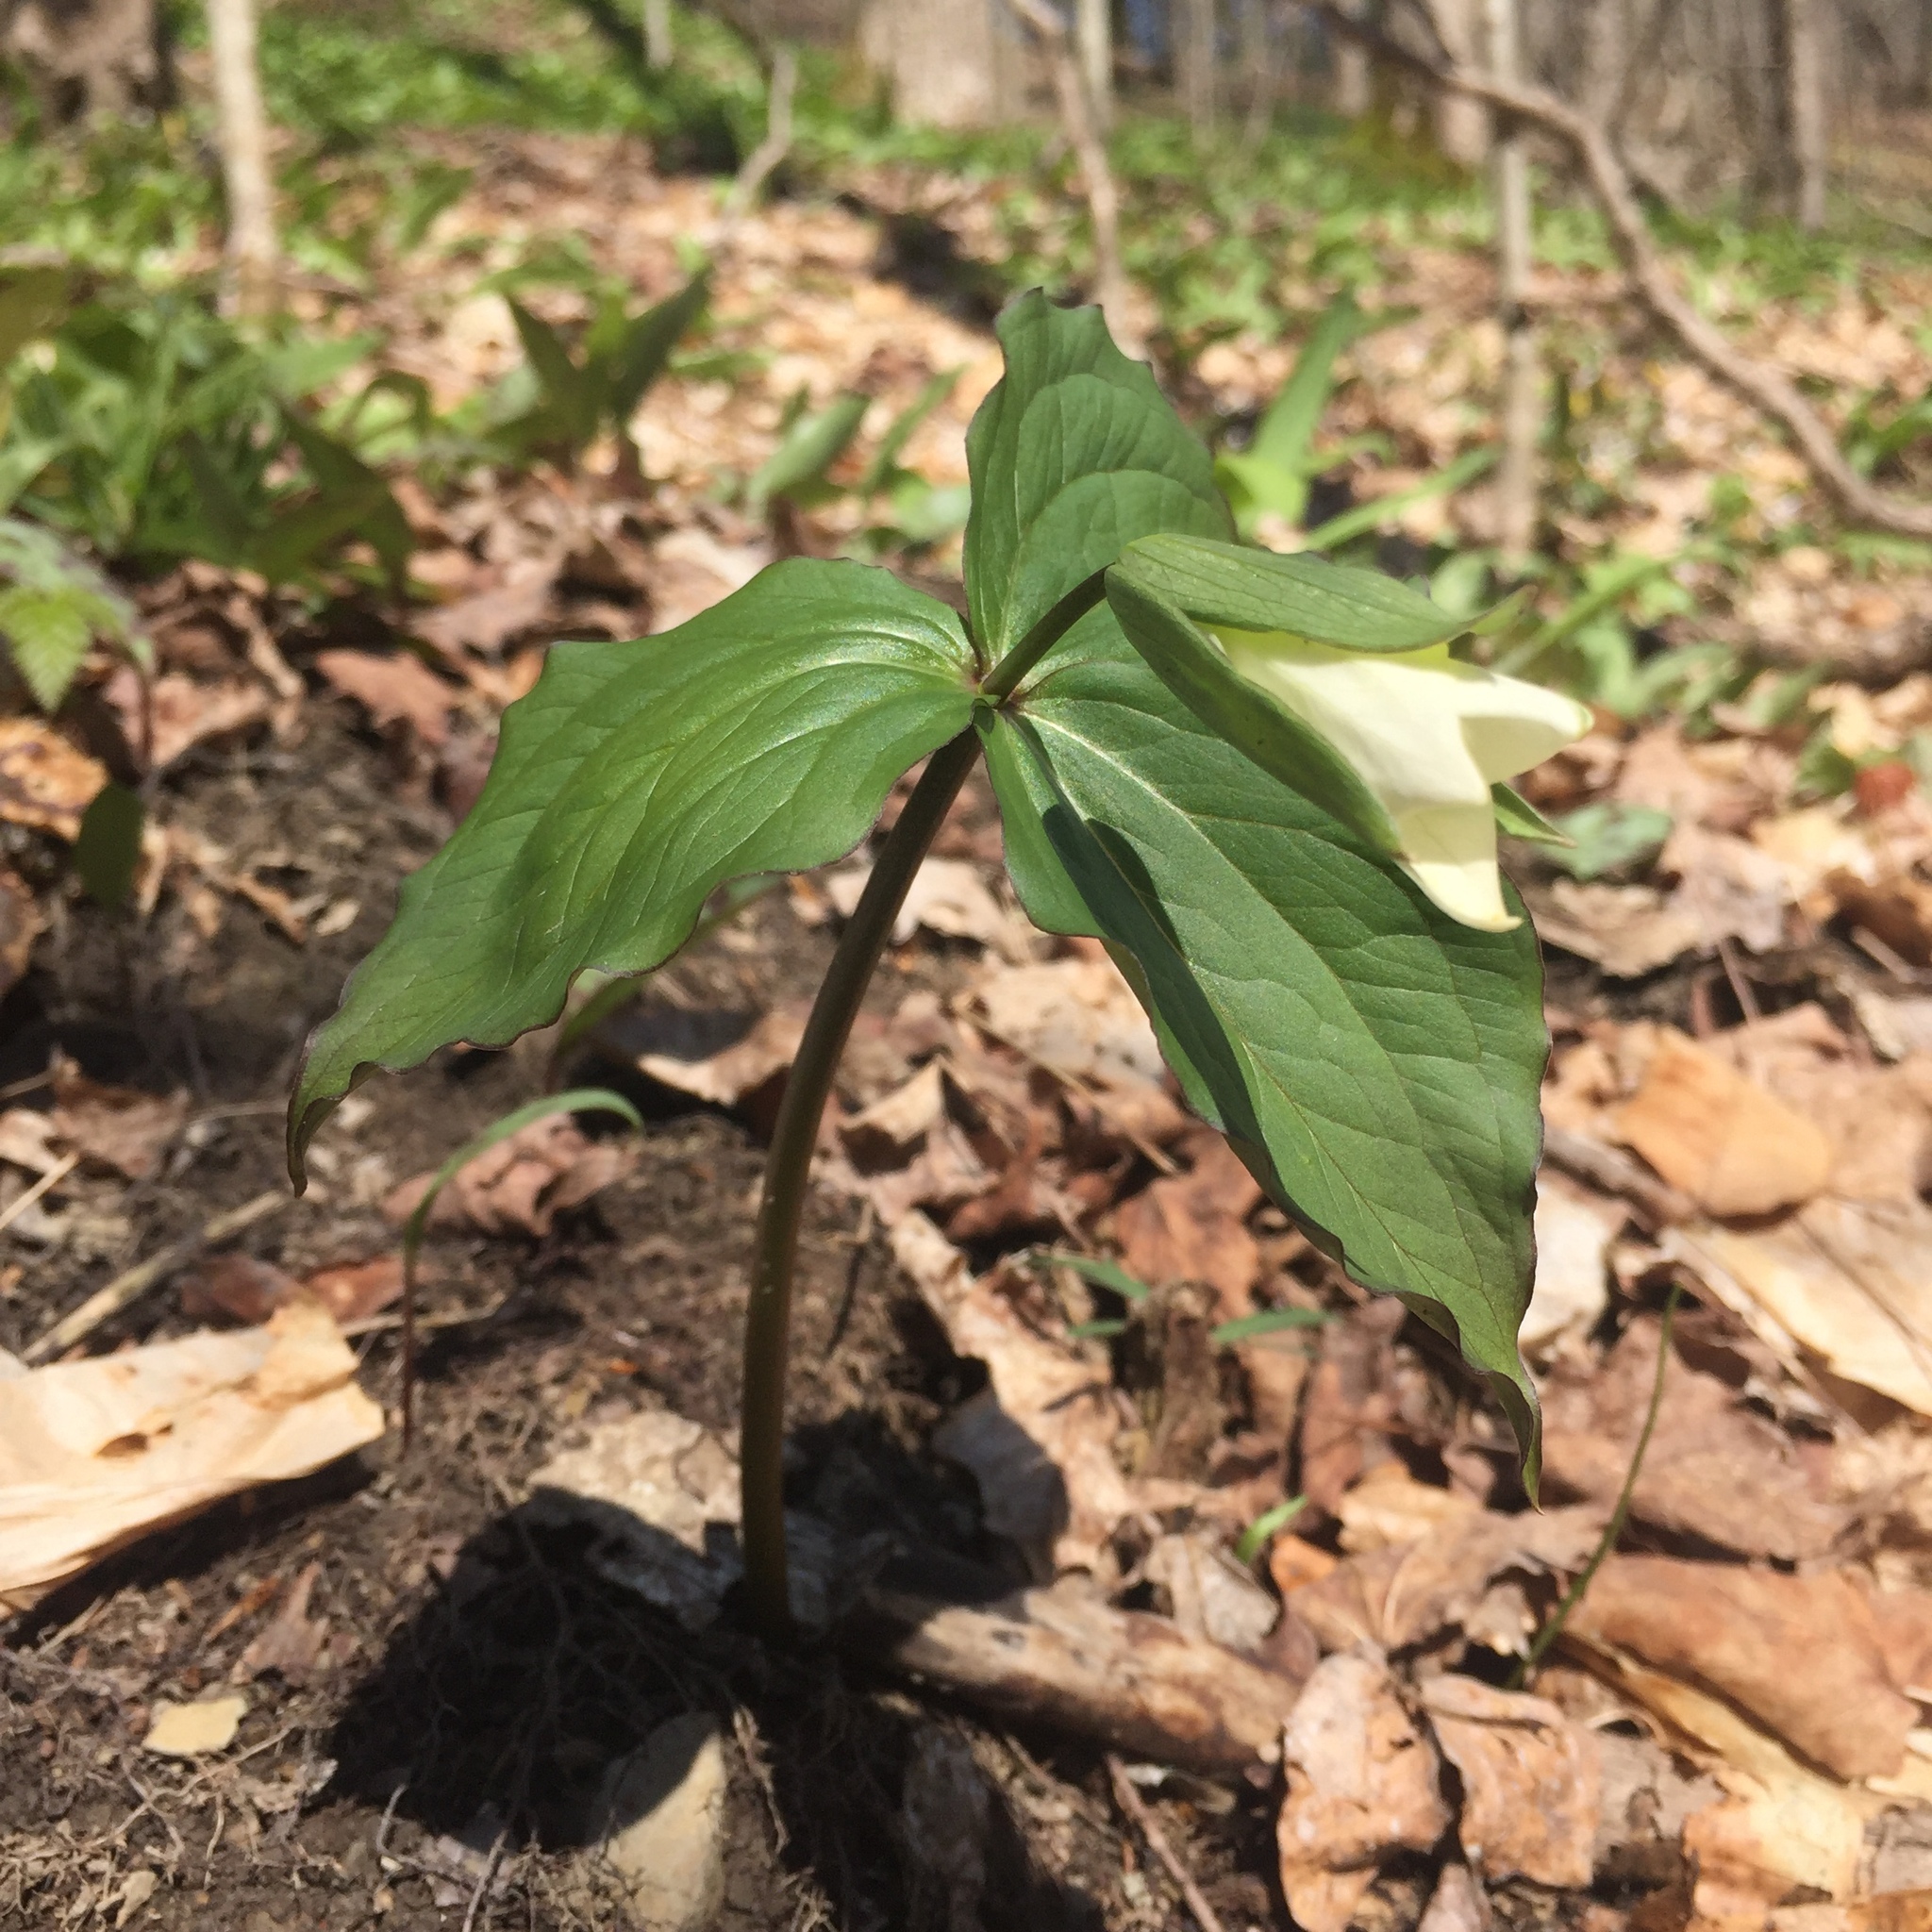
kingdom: Plantae
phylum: Tracheophyta
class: Liliopsida
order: Liliales
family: Melanthiaceae
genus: Trillium
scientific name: Trillium grandiflorum
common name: Great white trillium
